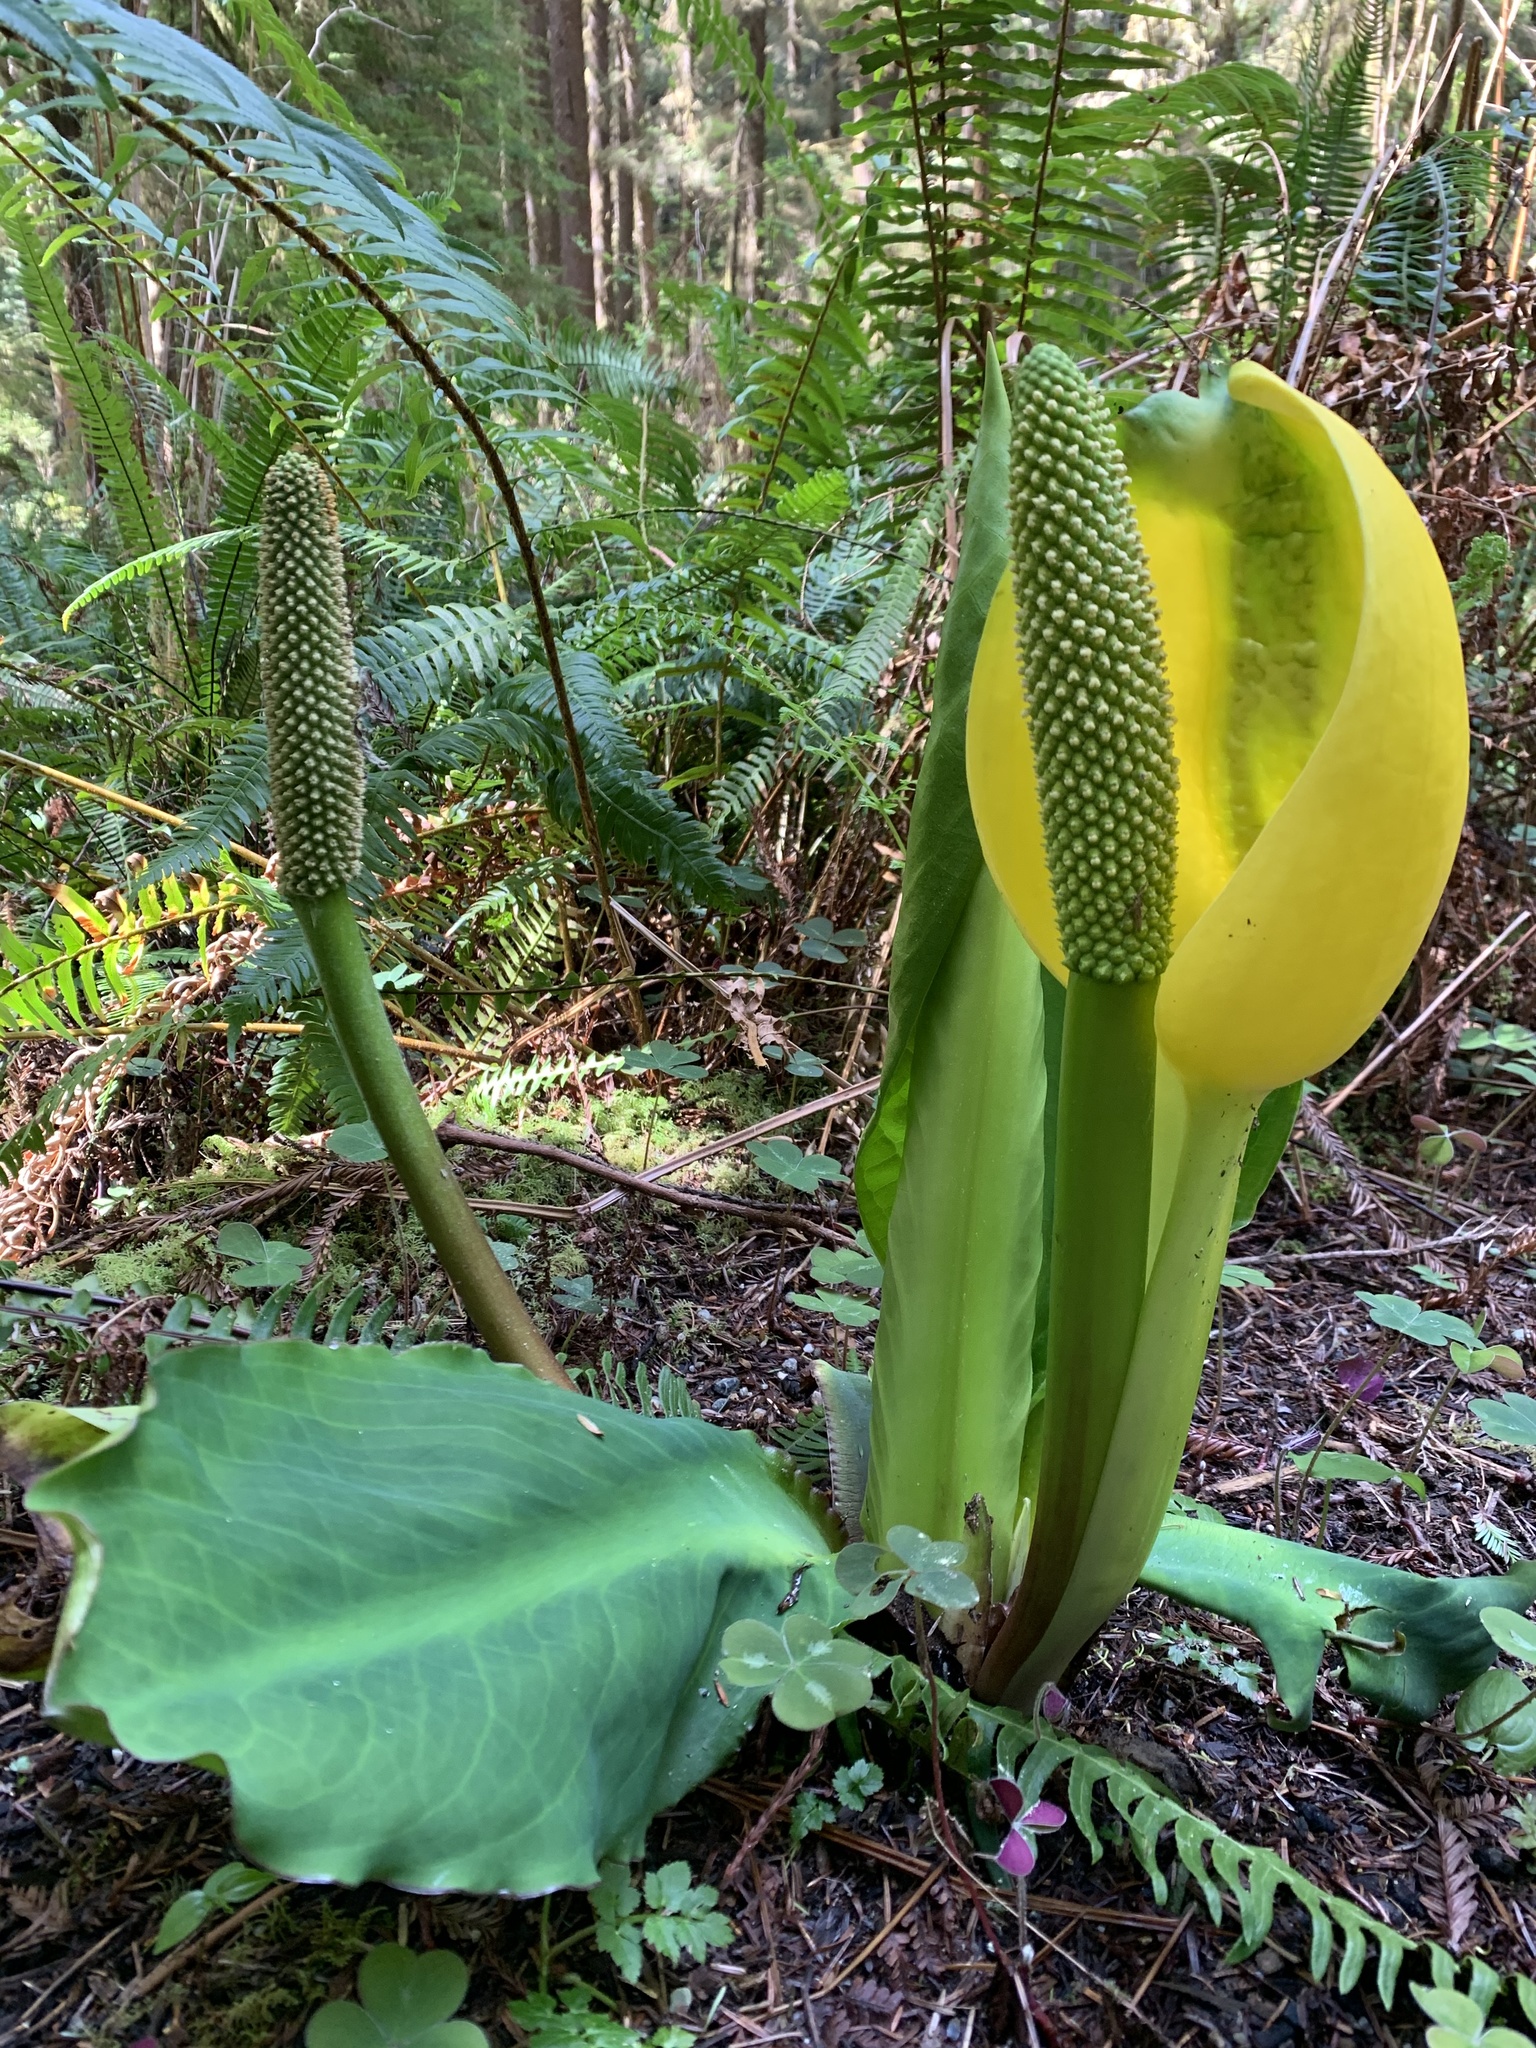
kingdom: Plantae
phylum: Tracheophyta
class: Liliopsida
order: Alismatales
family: Araceae
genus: Lysichiton
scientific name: Lysichiton americanus
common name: American skunk cabbage
